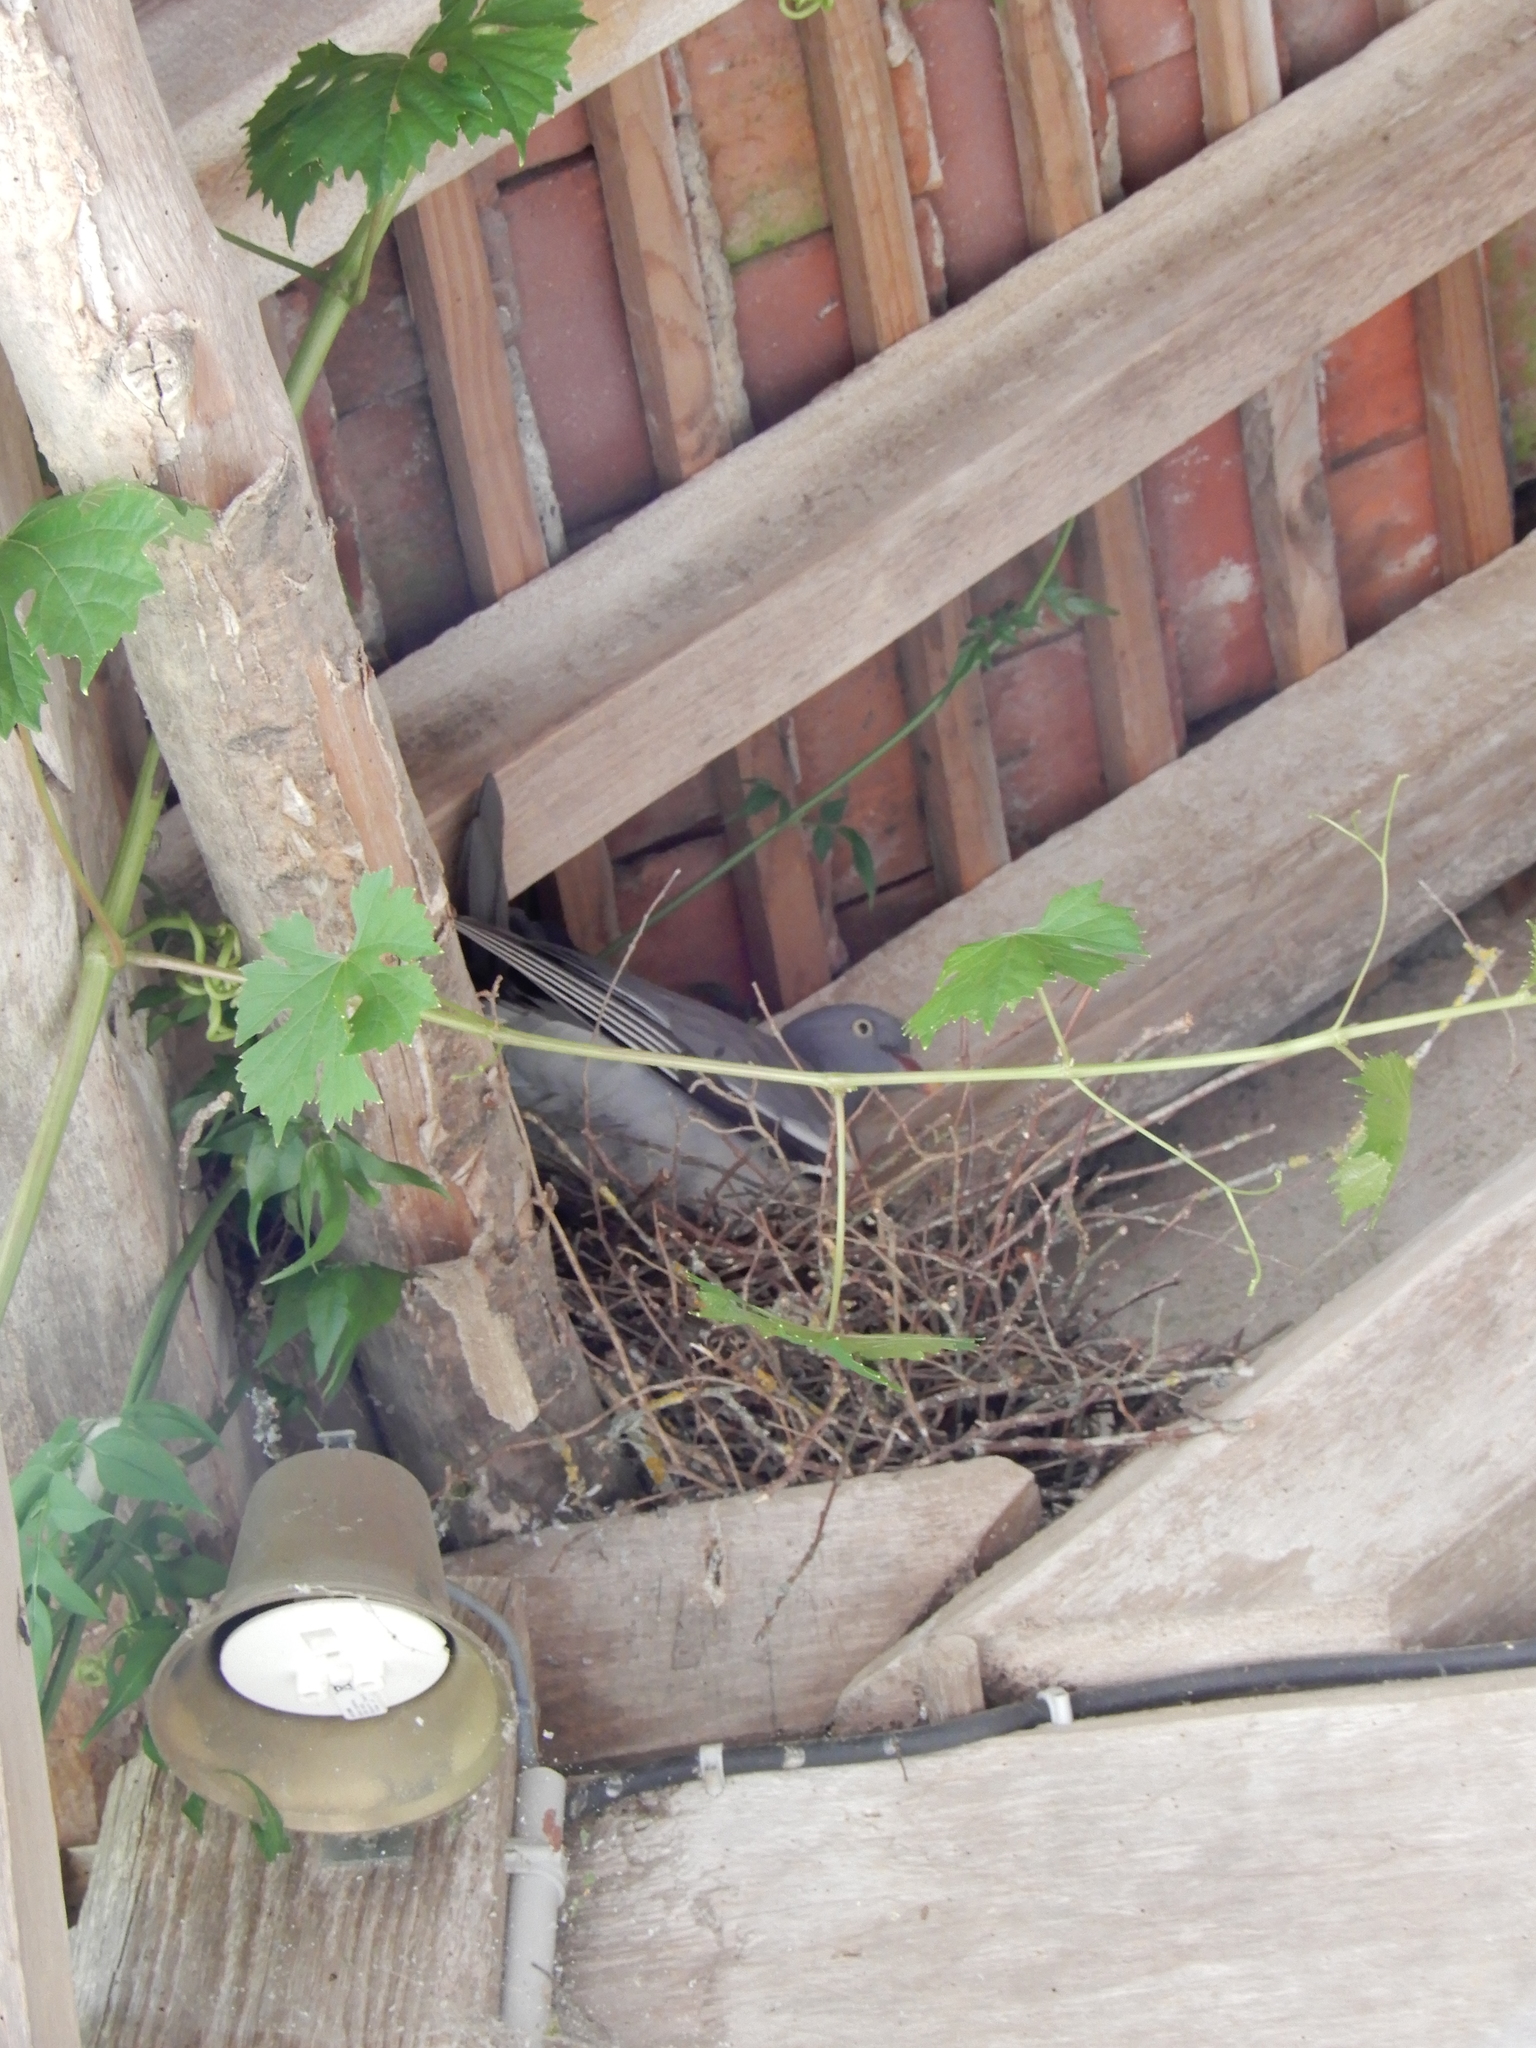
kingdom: Animalia
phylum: Chordata
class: Aves
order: Columbiformes
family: Columbidae
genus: Columba
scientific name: Columba palumbus
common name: Common wood pigeon
